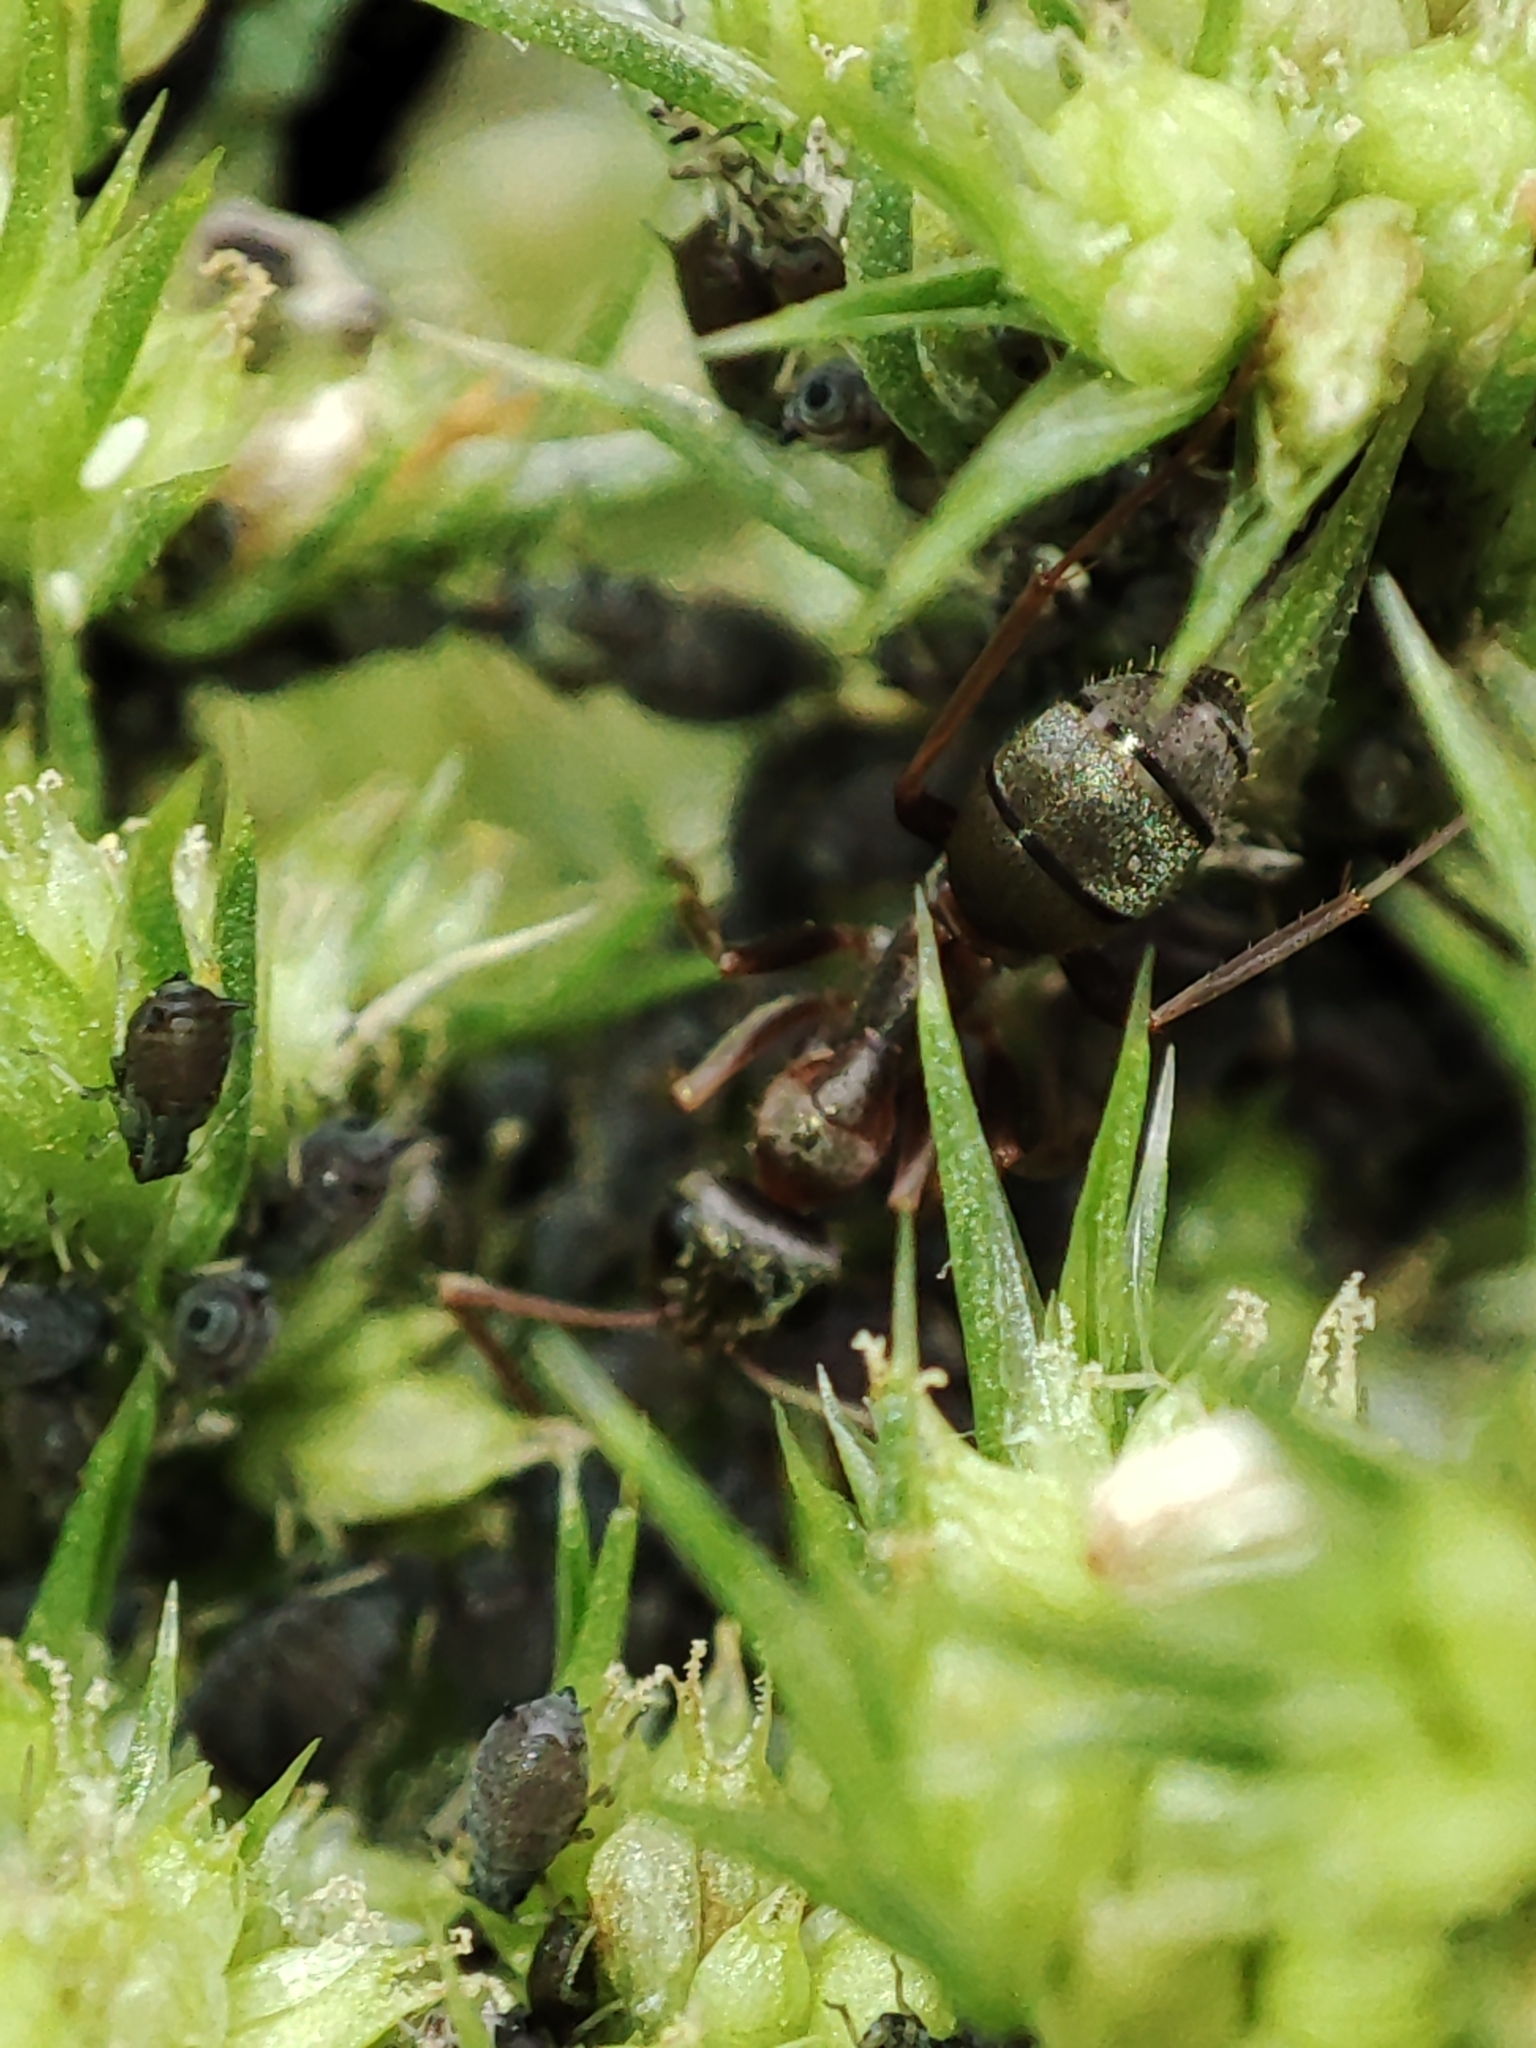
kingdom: Animalia
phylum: Arthropoda
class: Insecta
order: Hymenoptera
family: Formicidae
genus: Formica
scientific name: Formica cinerea
